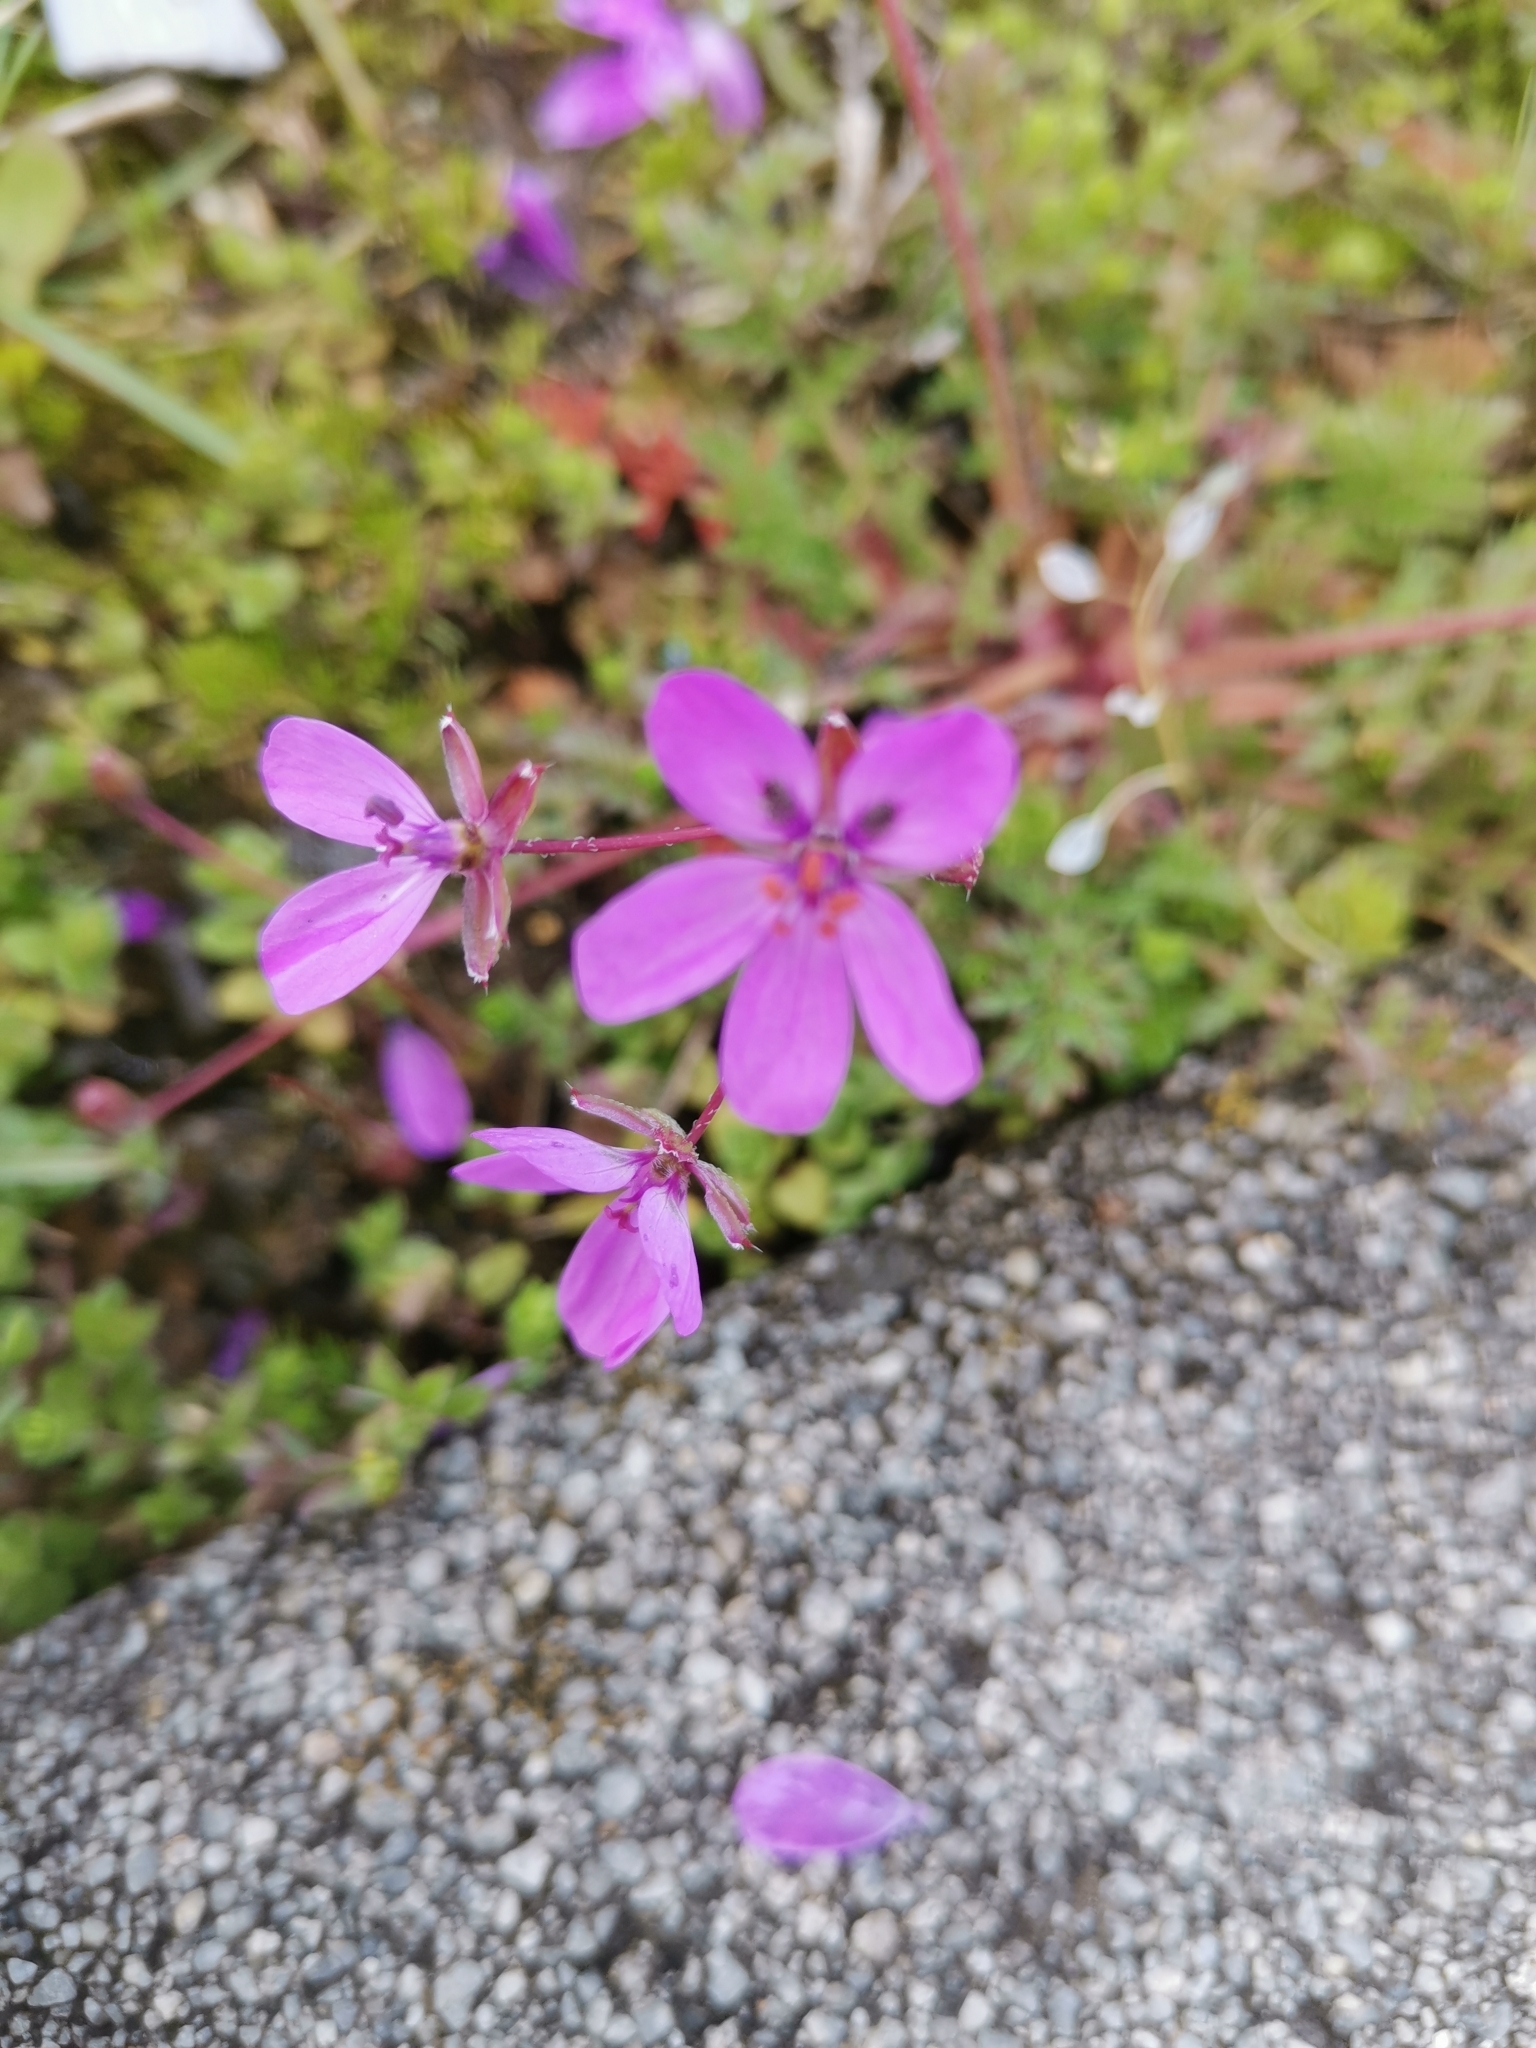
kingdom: Plantae
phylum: Tracheophyta
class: Magnoliopsida
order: Geraniales
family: Geraniaceae
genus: Erodium
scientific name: Erodium cicutarium
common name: Common stork's-bill
